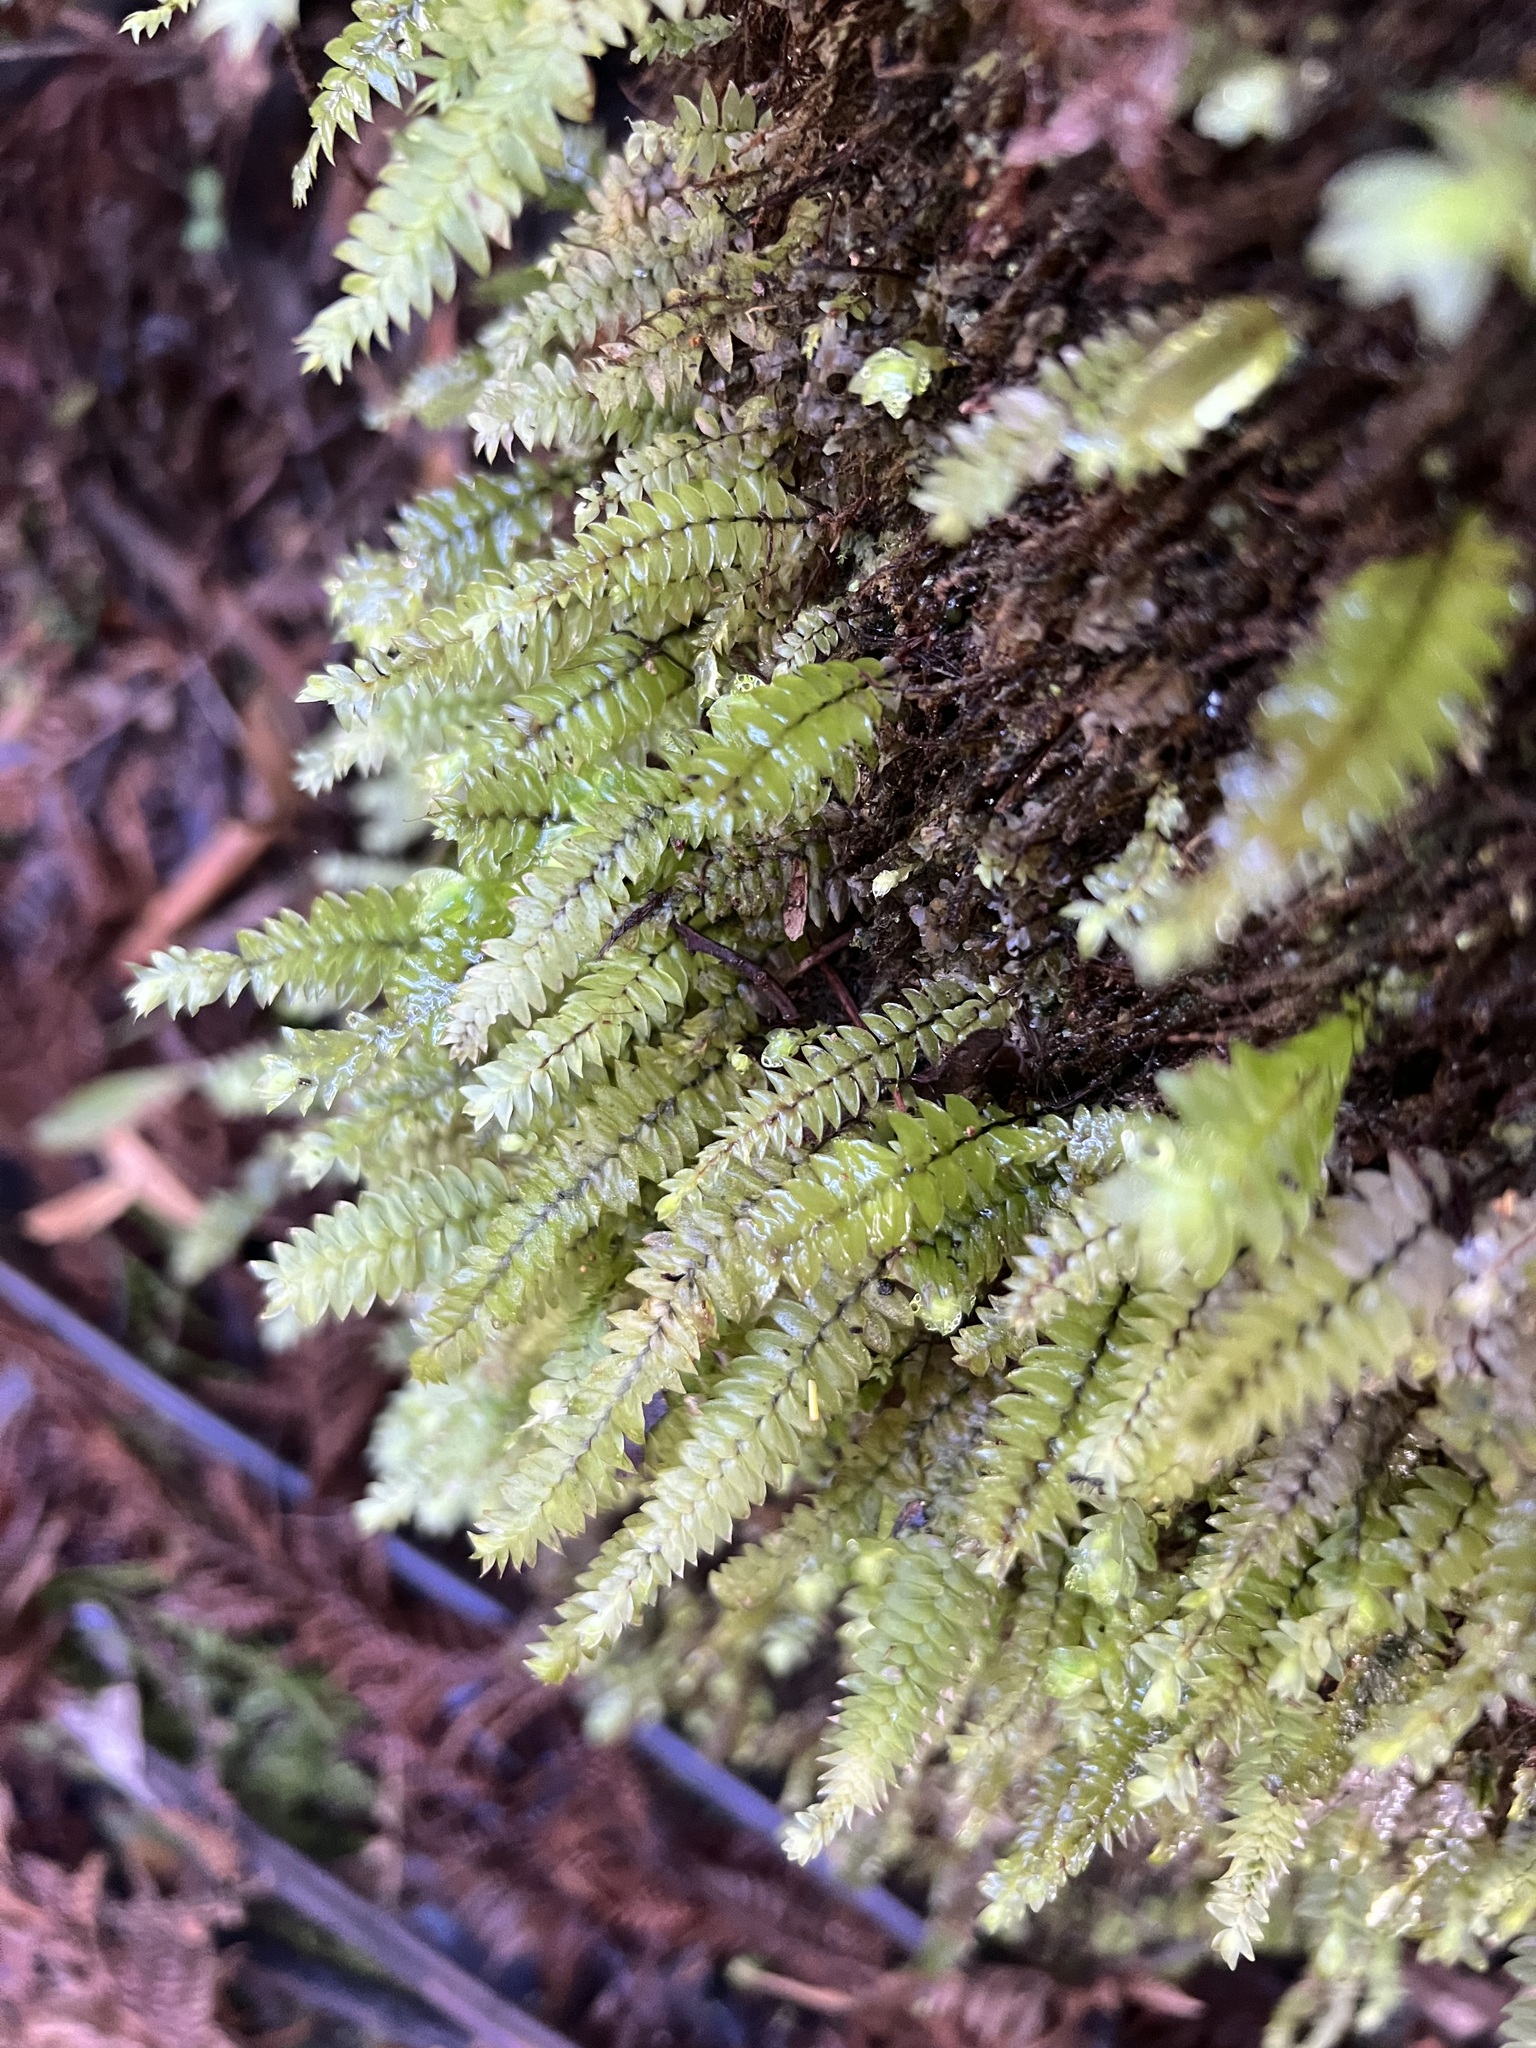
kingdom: Plantae
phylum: Bryophyta
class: Bryopsida
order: Hypopterygiales
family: Hypopterygiaceae
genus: Cyathophorum
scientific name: Cyathophorum bulbosum
